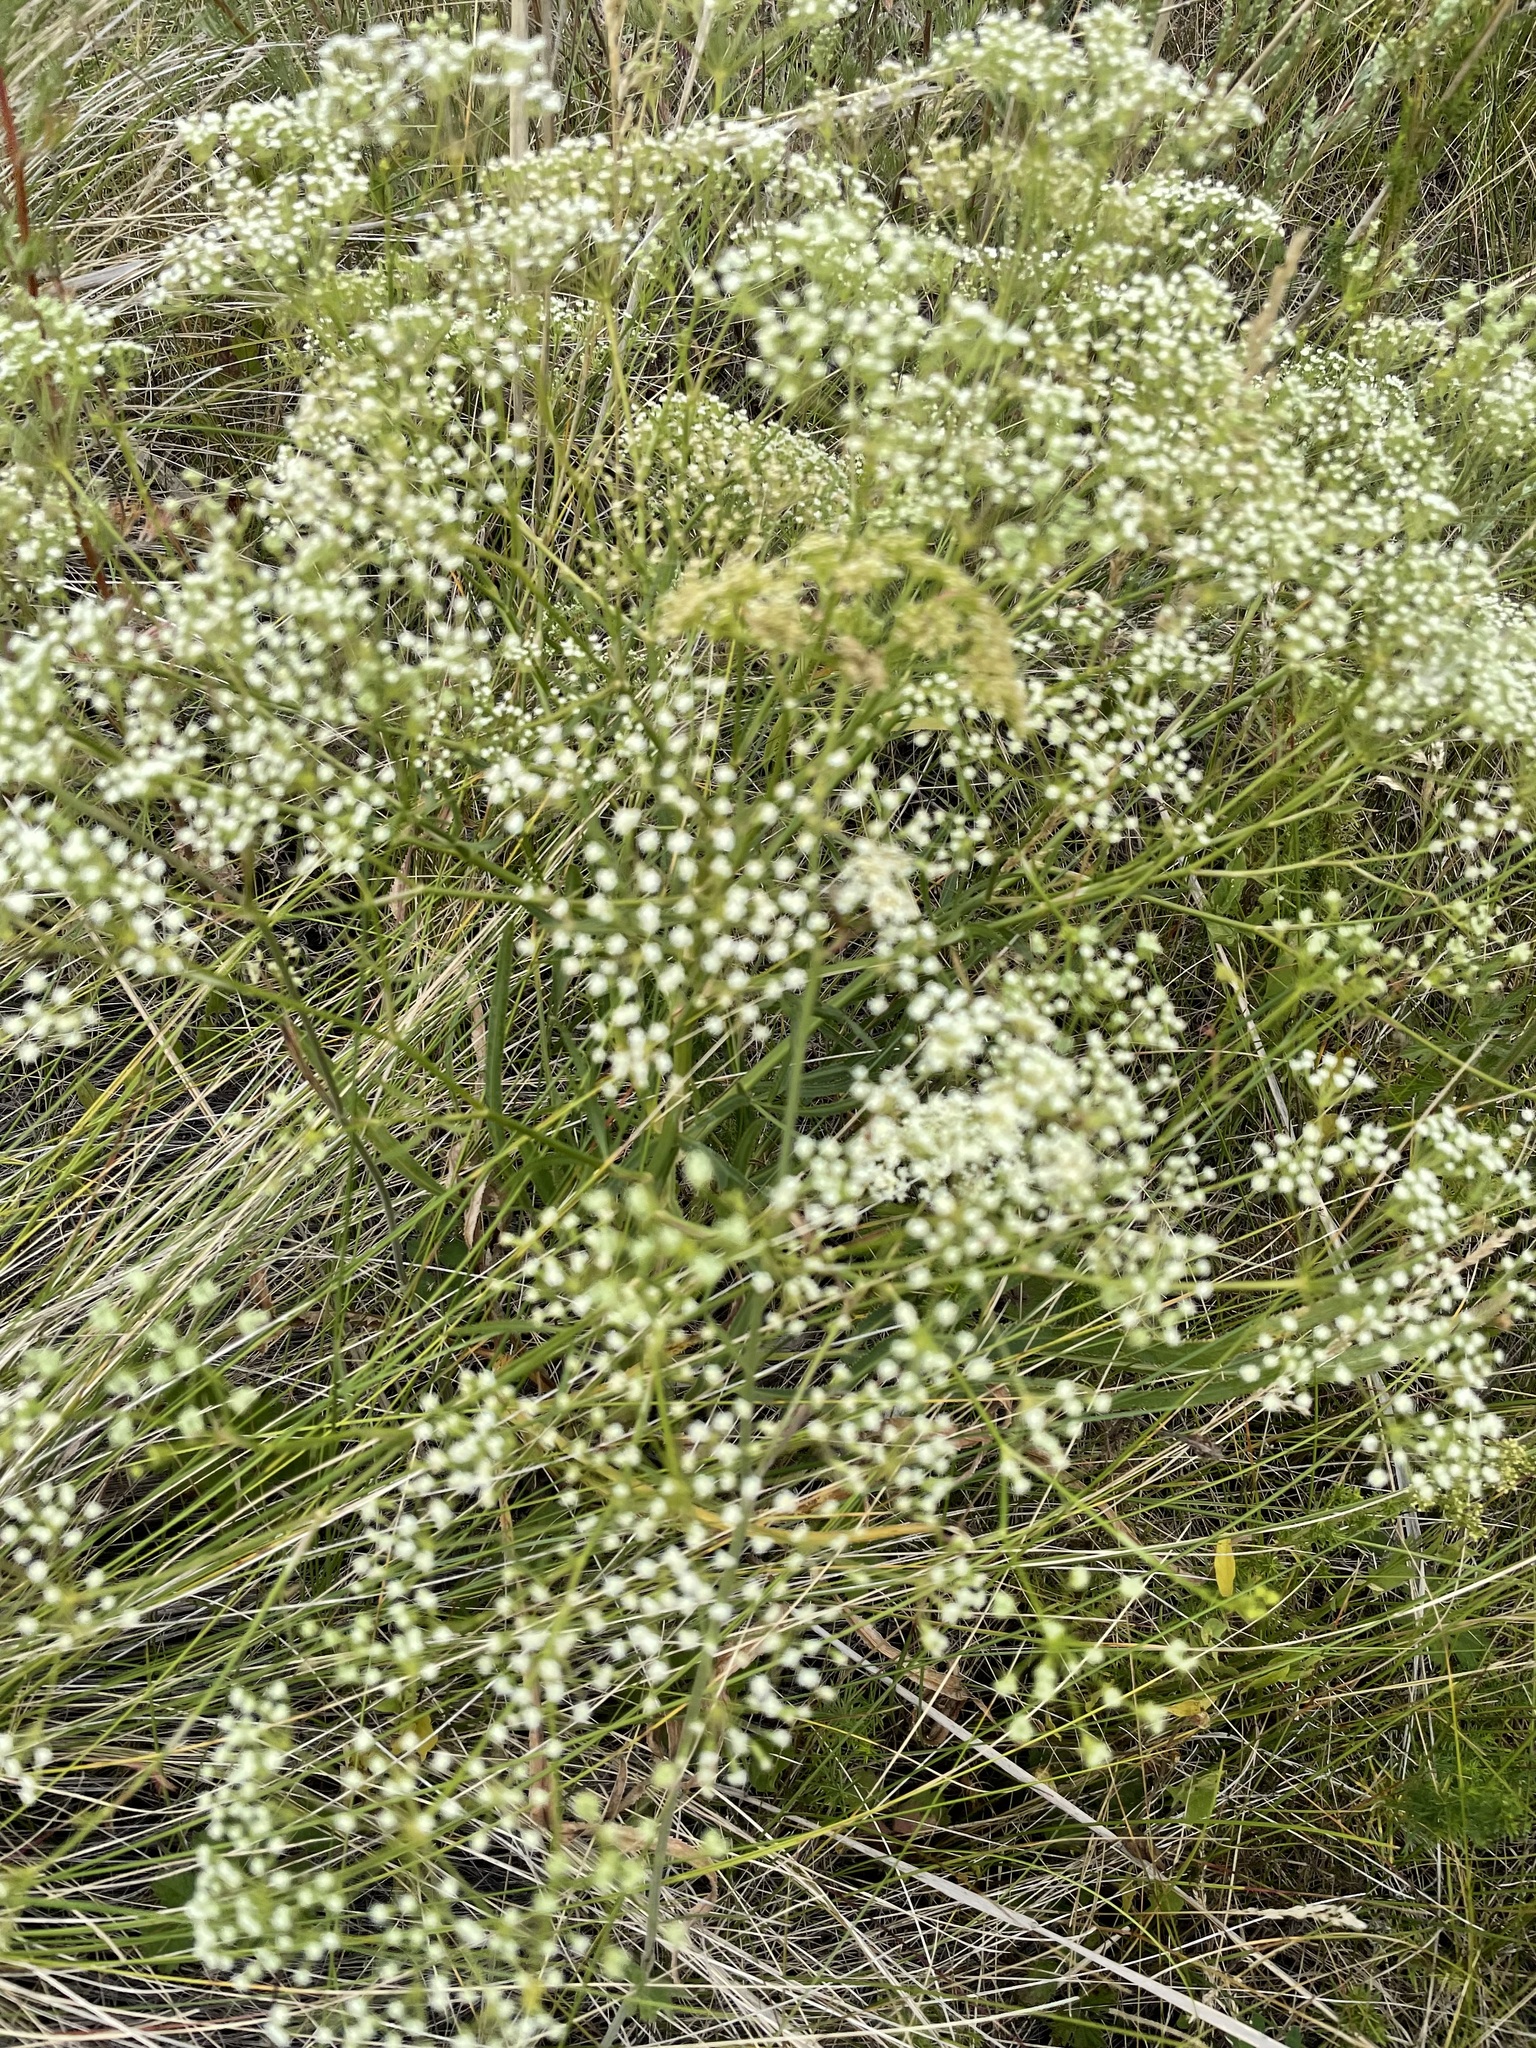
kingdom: Plantae
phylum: Tracheophyta
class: Magnoliopsida
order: Apiales
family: Apiaceae
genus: Falcaria
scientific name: Falcaria vulgaris
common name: Longleaf
